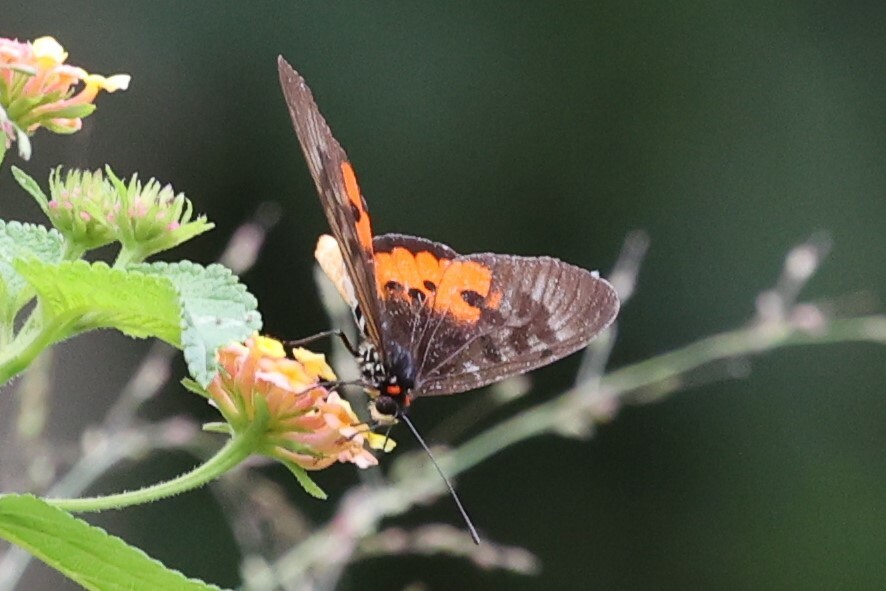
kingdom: Animalia
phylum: Arthropoda
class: Insecta
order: Lepidoptera
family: Nymphalidae
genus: Rubraea
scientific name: Rubraea
